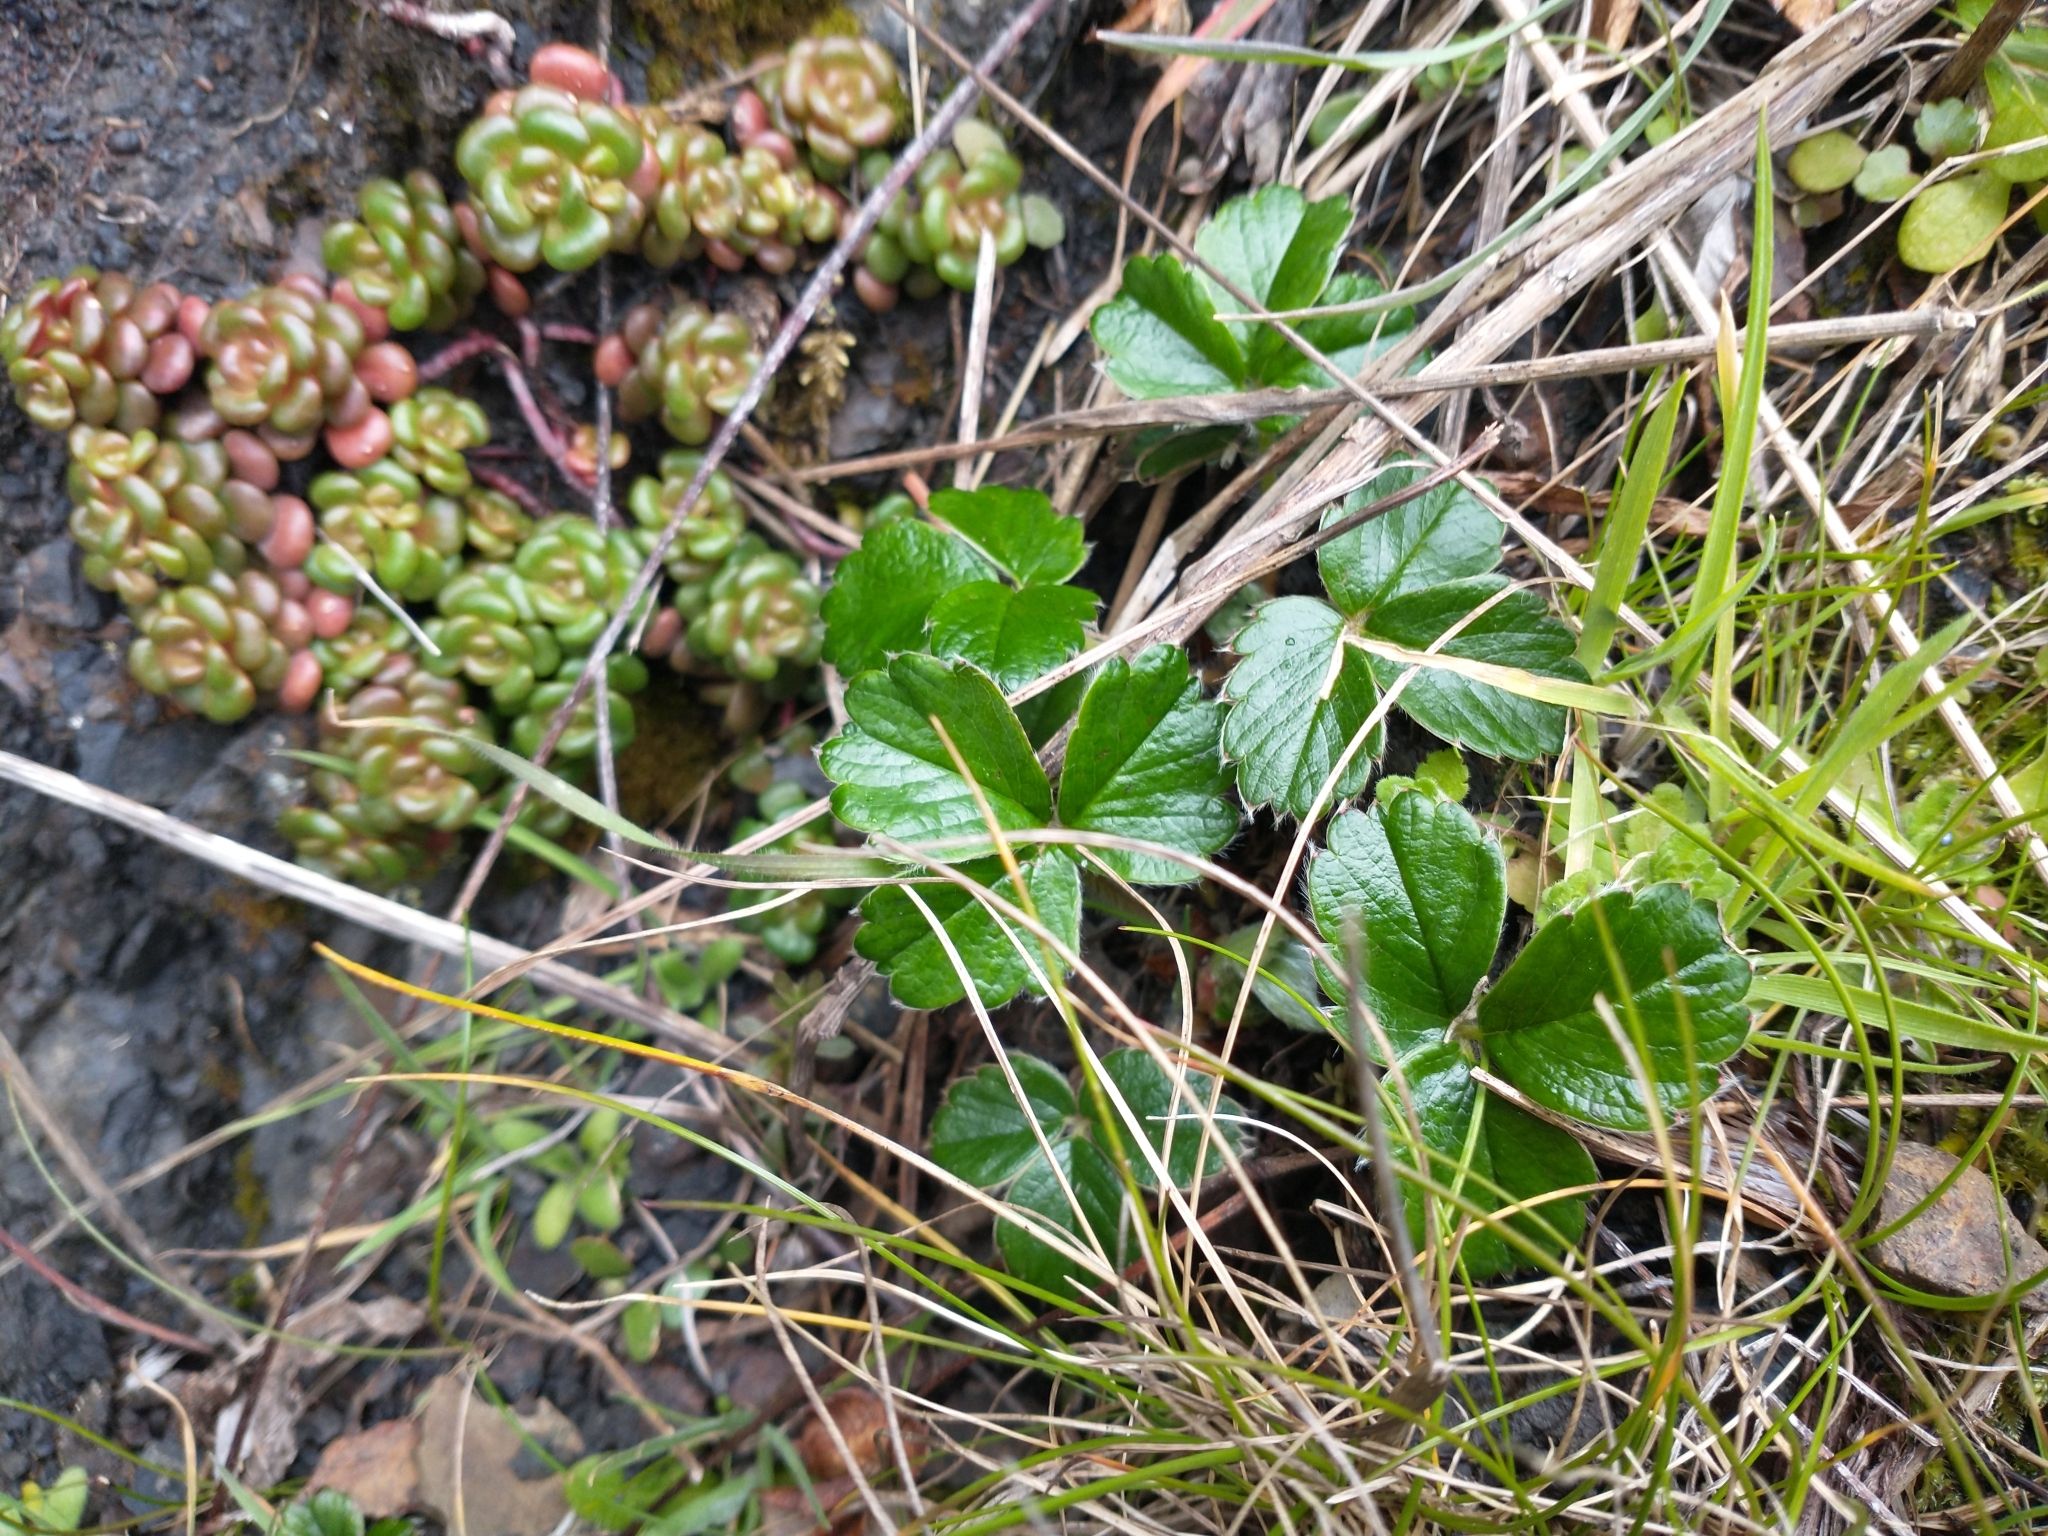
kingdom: Plantae
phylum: Tracheophyta
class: Magnoliopsida
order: Rosales
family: Rosaceae
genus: Fragaria
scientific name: Fragaria chiloensis
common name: Beach strawberry
